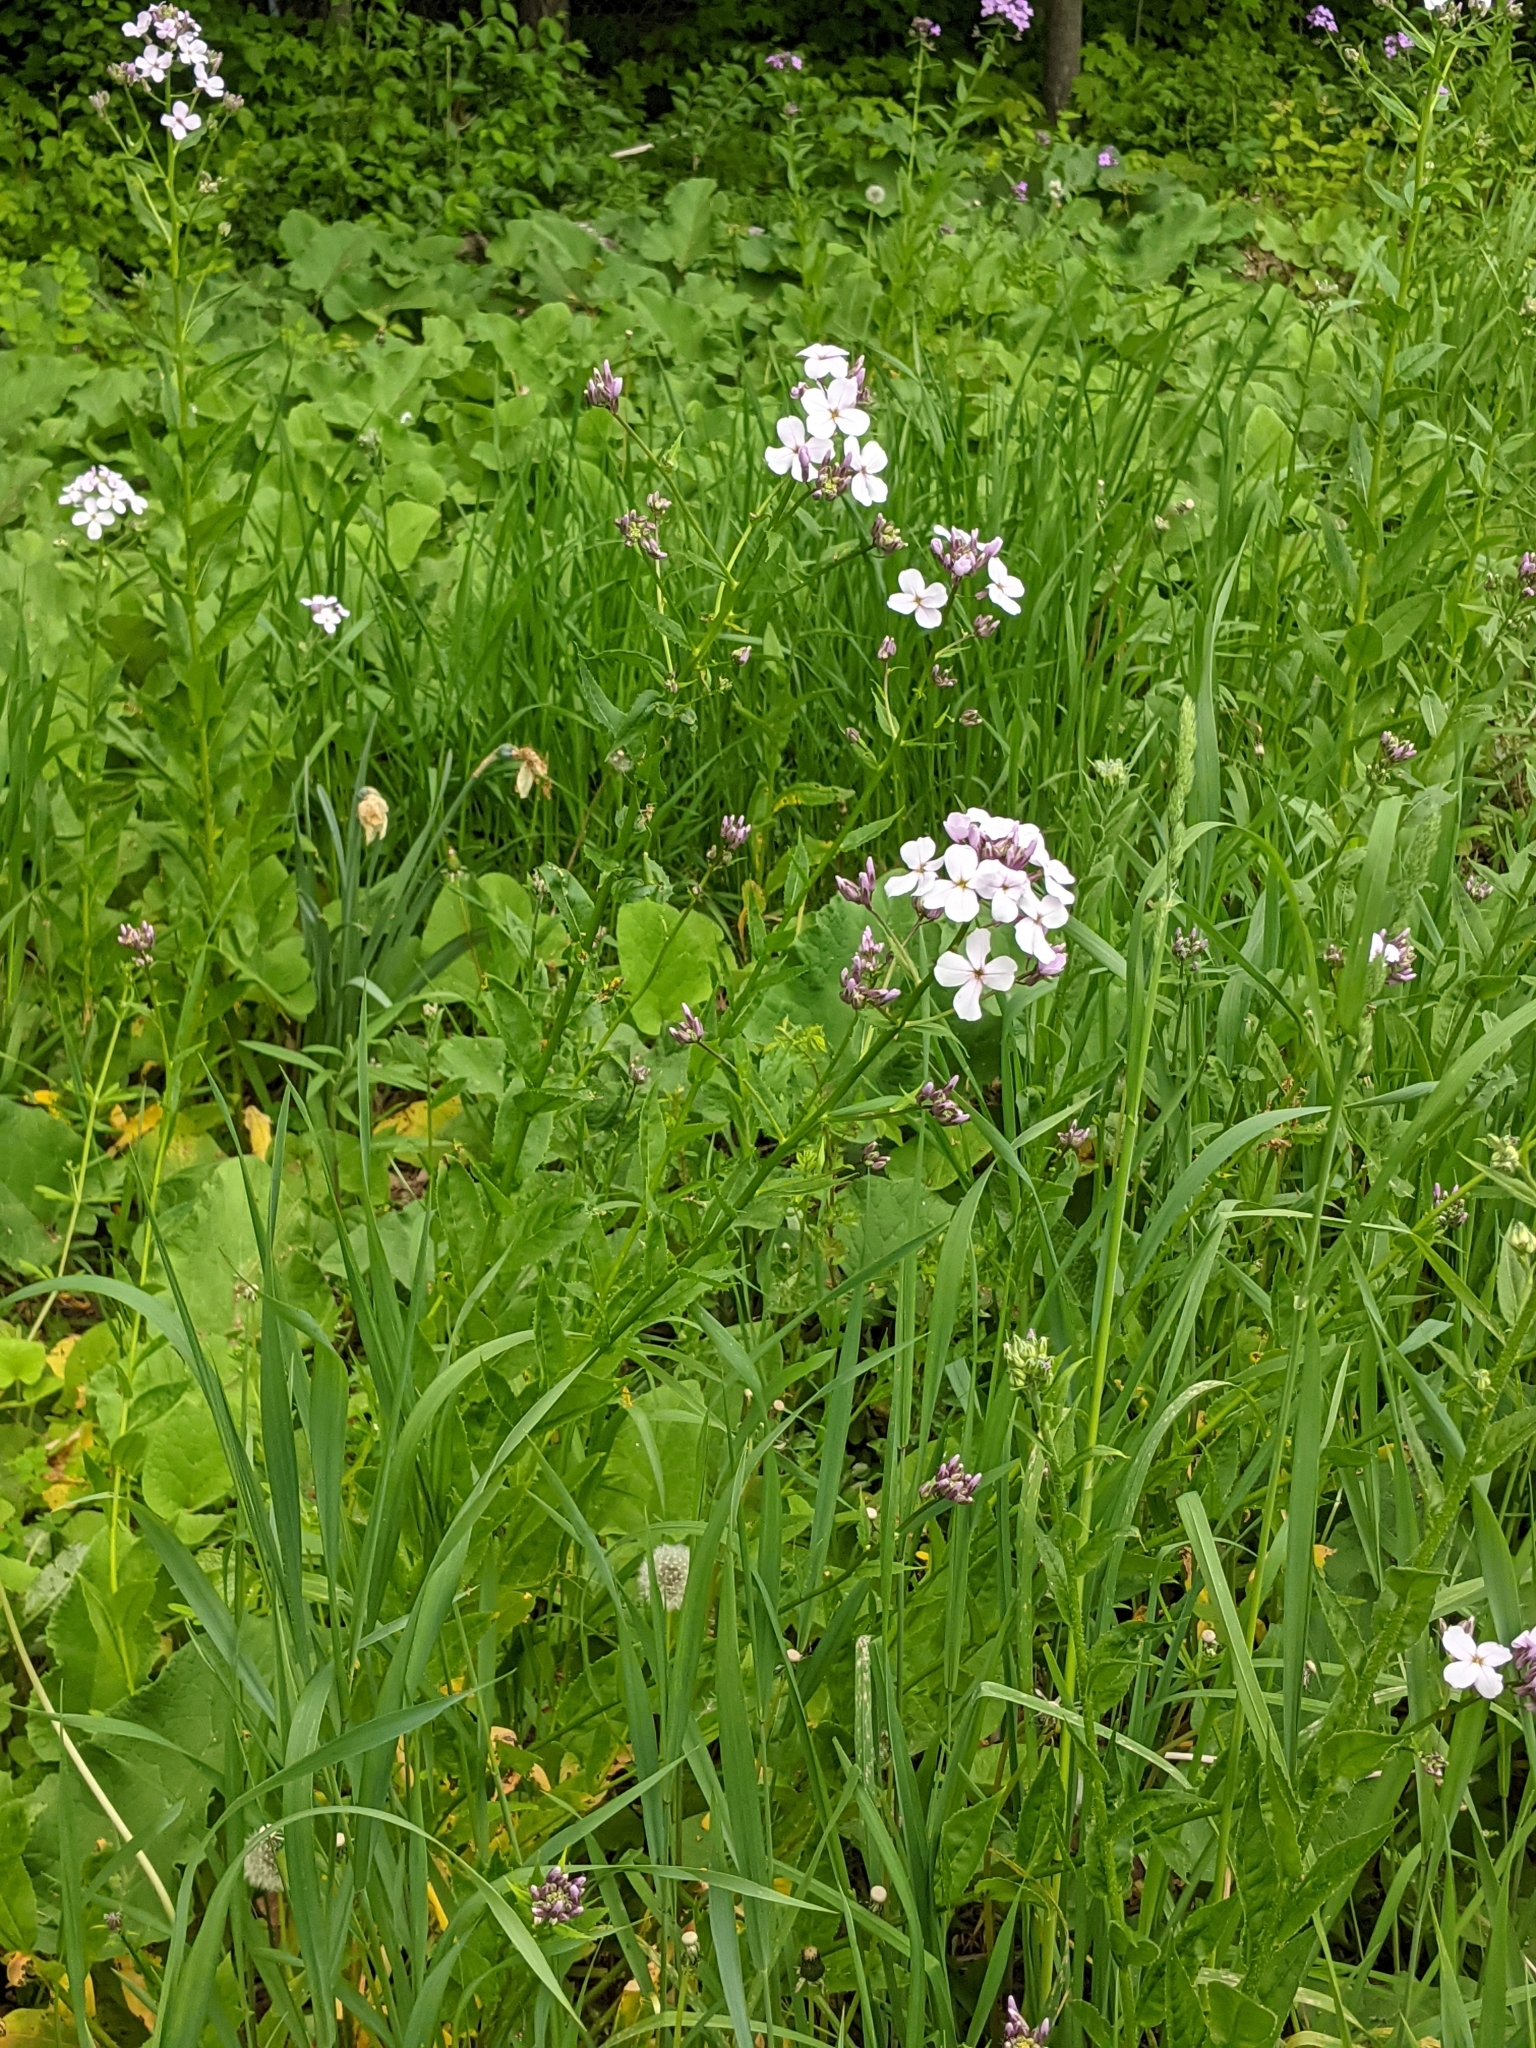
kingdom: Plantae
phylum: Tracheophyta
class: Magnoliopsida
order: Brassicales
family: Brassicaceae
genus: Hesperis
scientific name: Hesperis matronalis
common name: Dame's-violet
